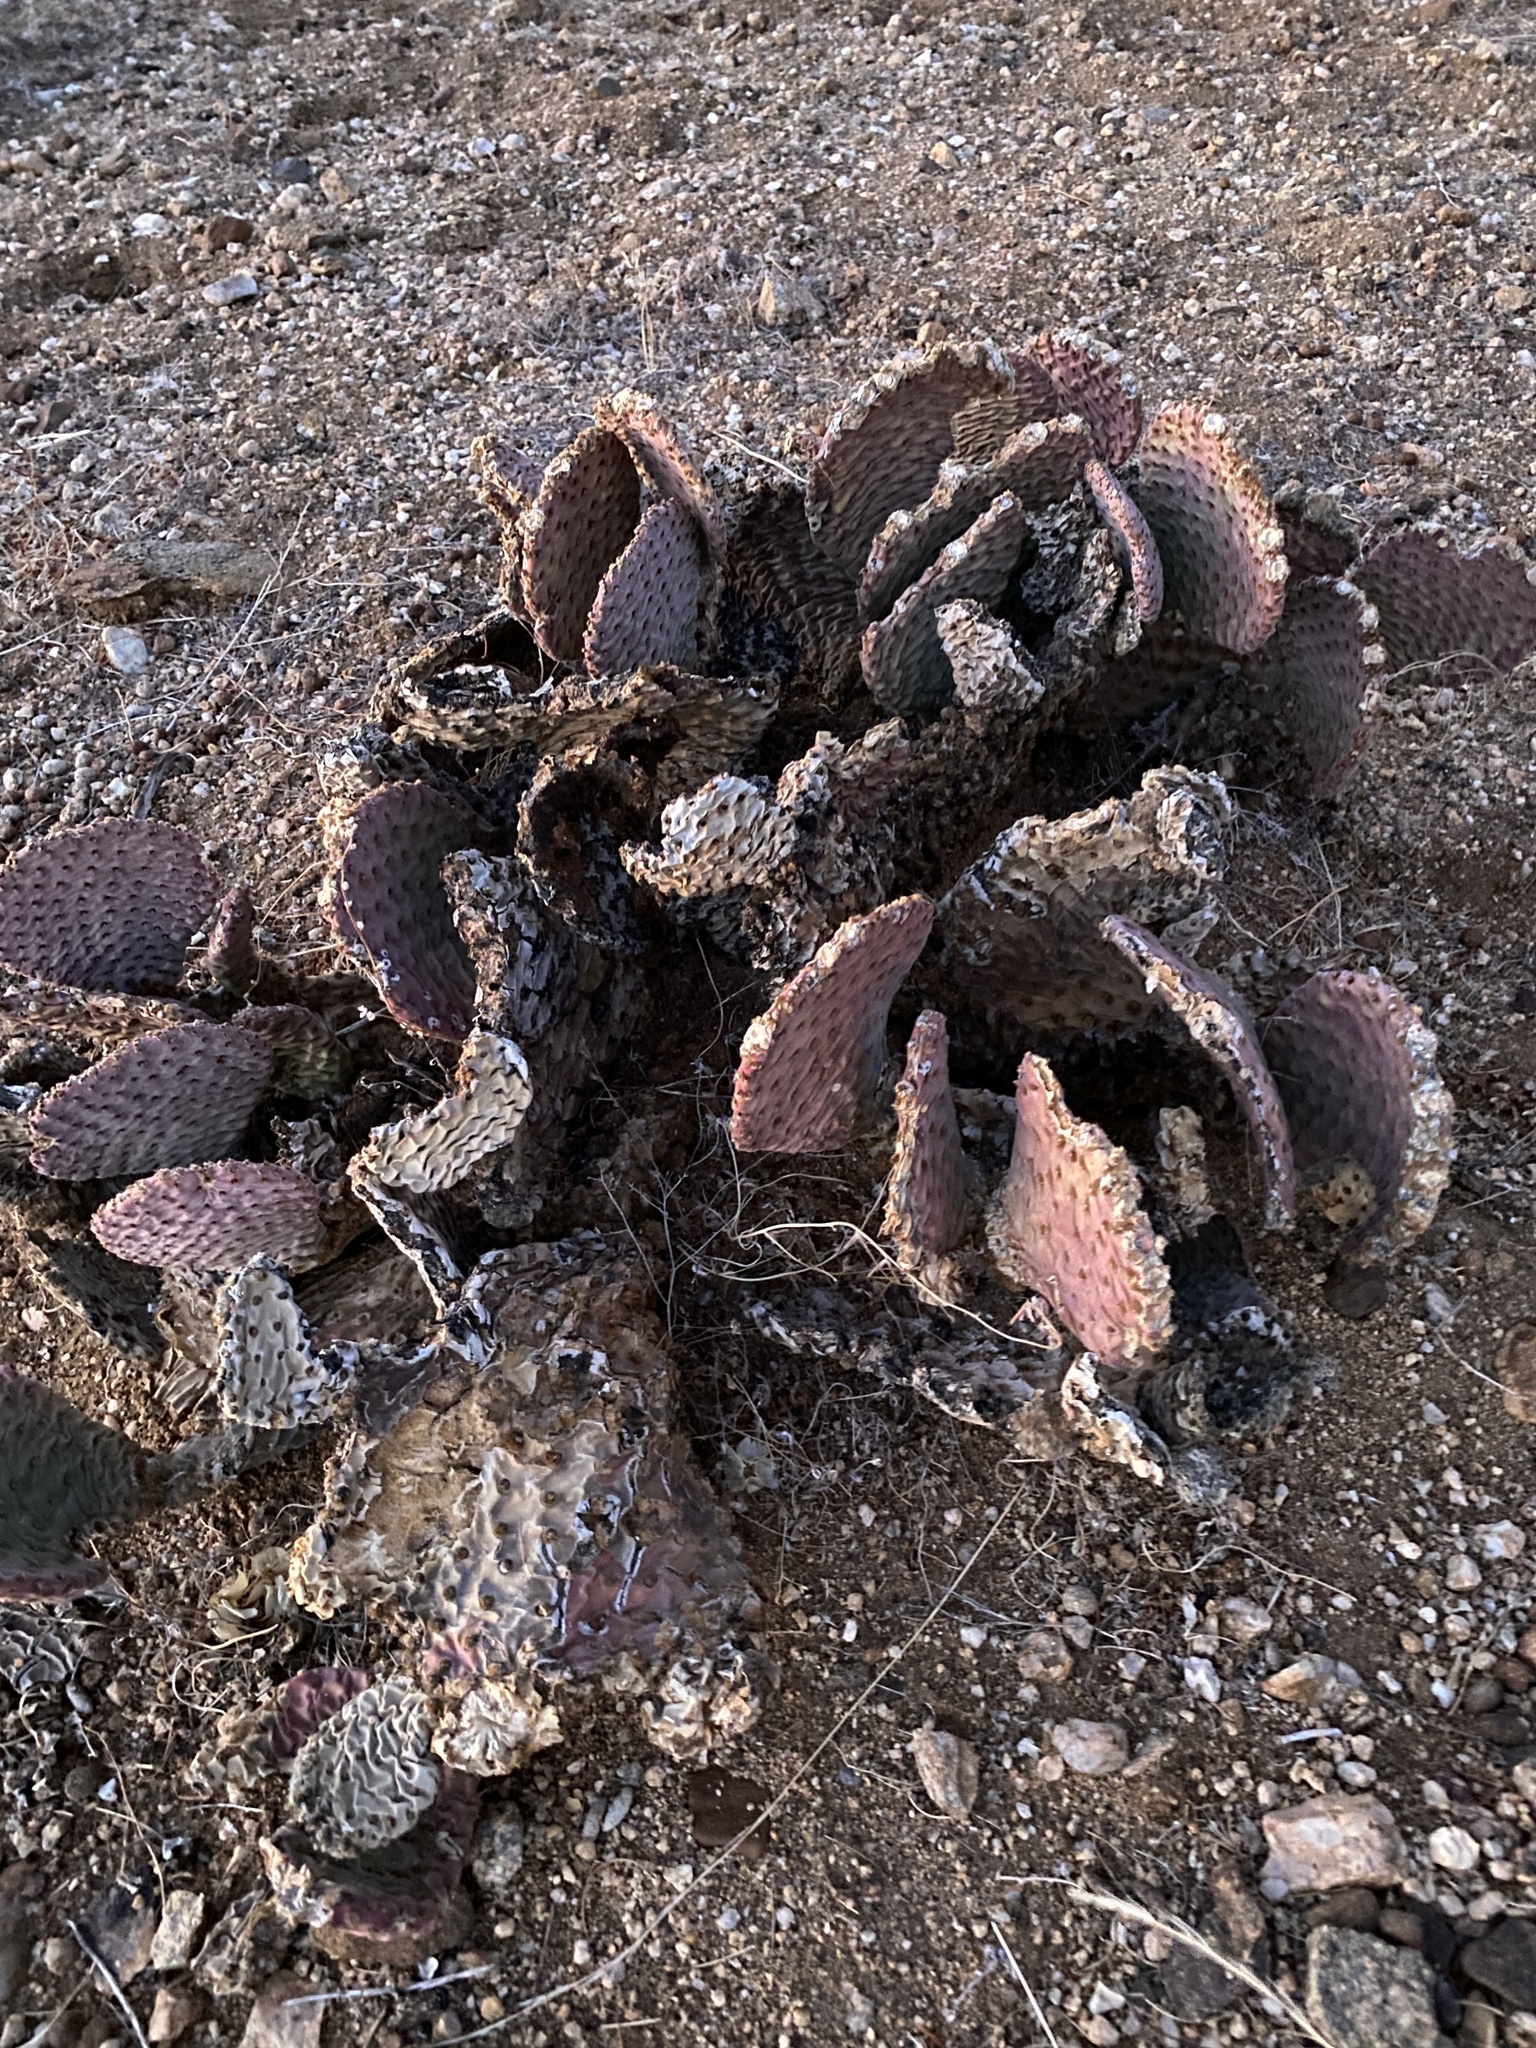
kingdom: Plantae
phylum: Tracheophyta
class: Magnoliopsida
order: Caryophyllales
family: Cactaceae
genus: Opuntia
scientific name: Opuntia basilaris
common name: Beavertail prickly-pear
